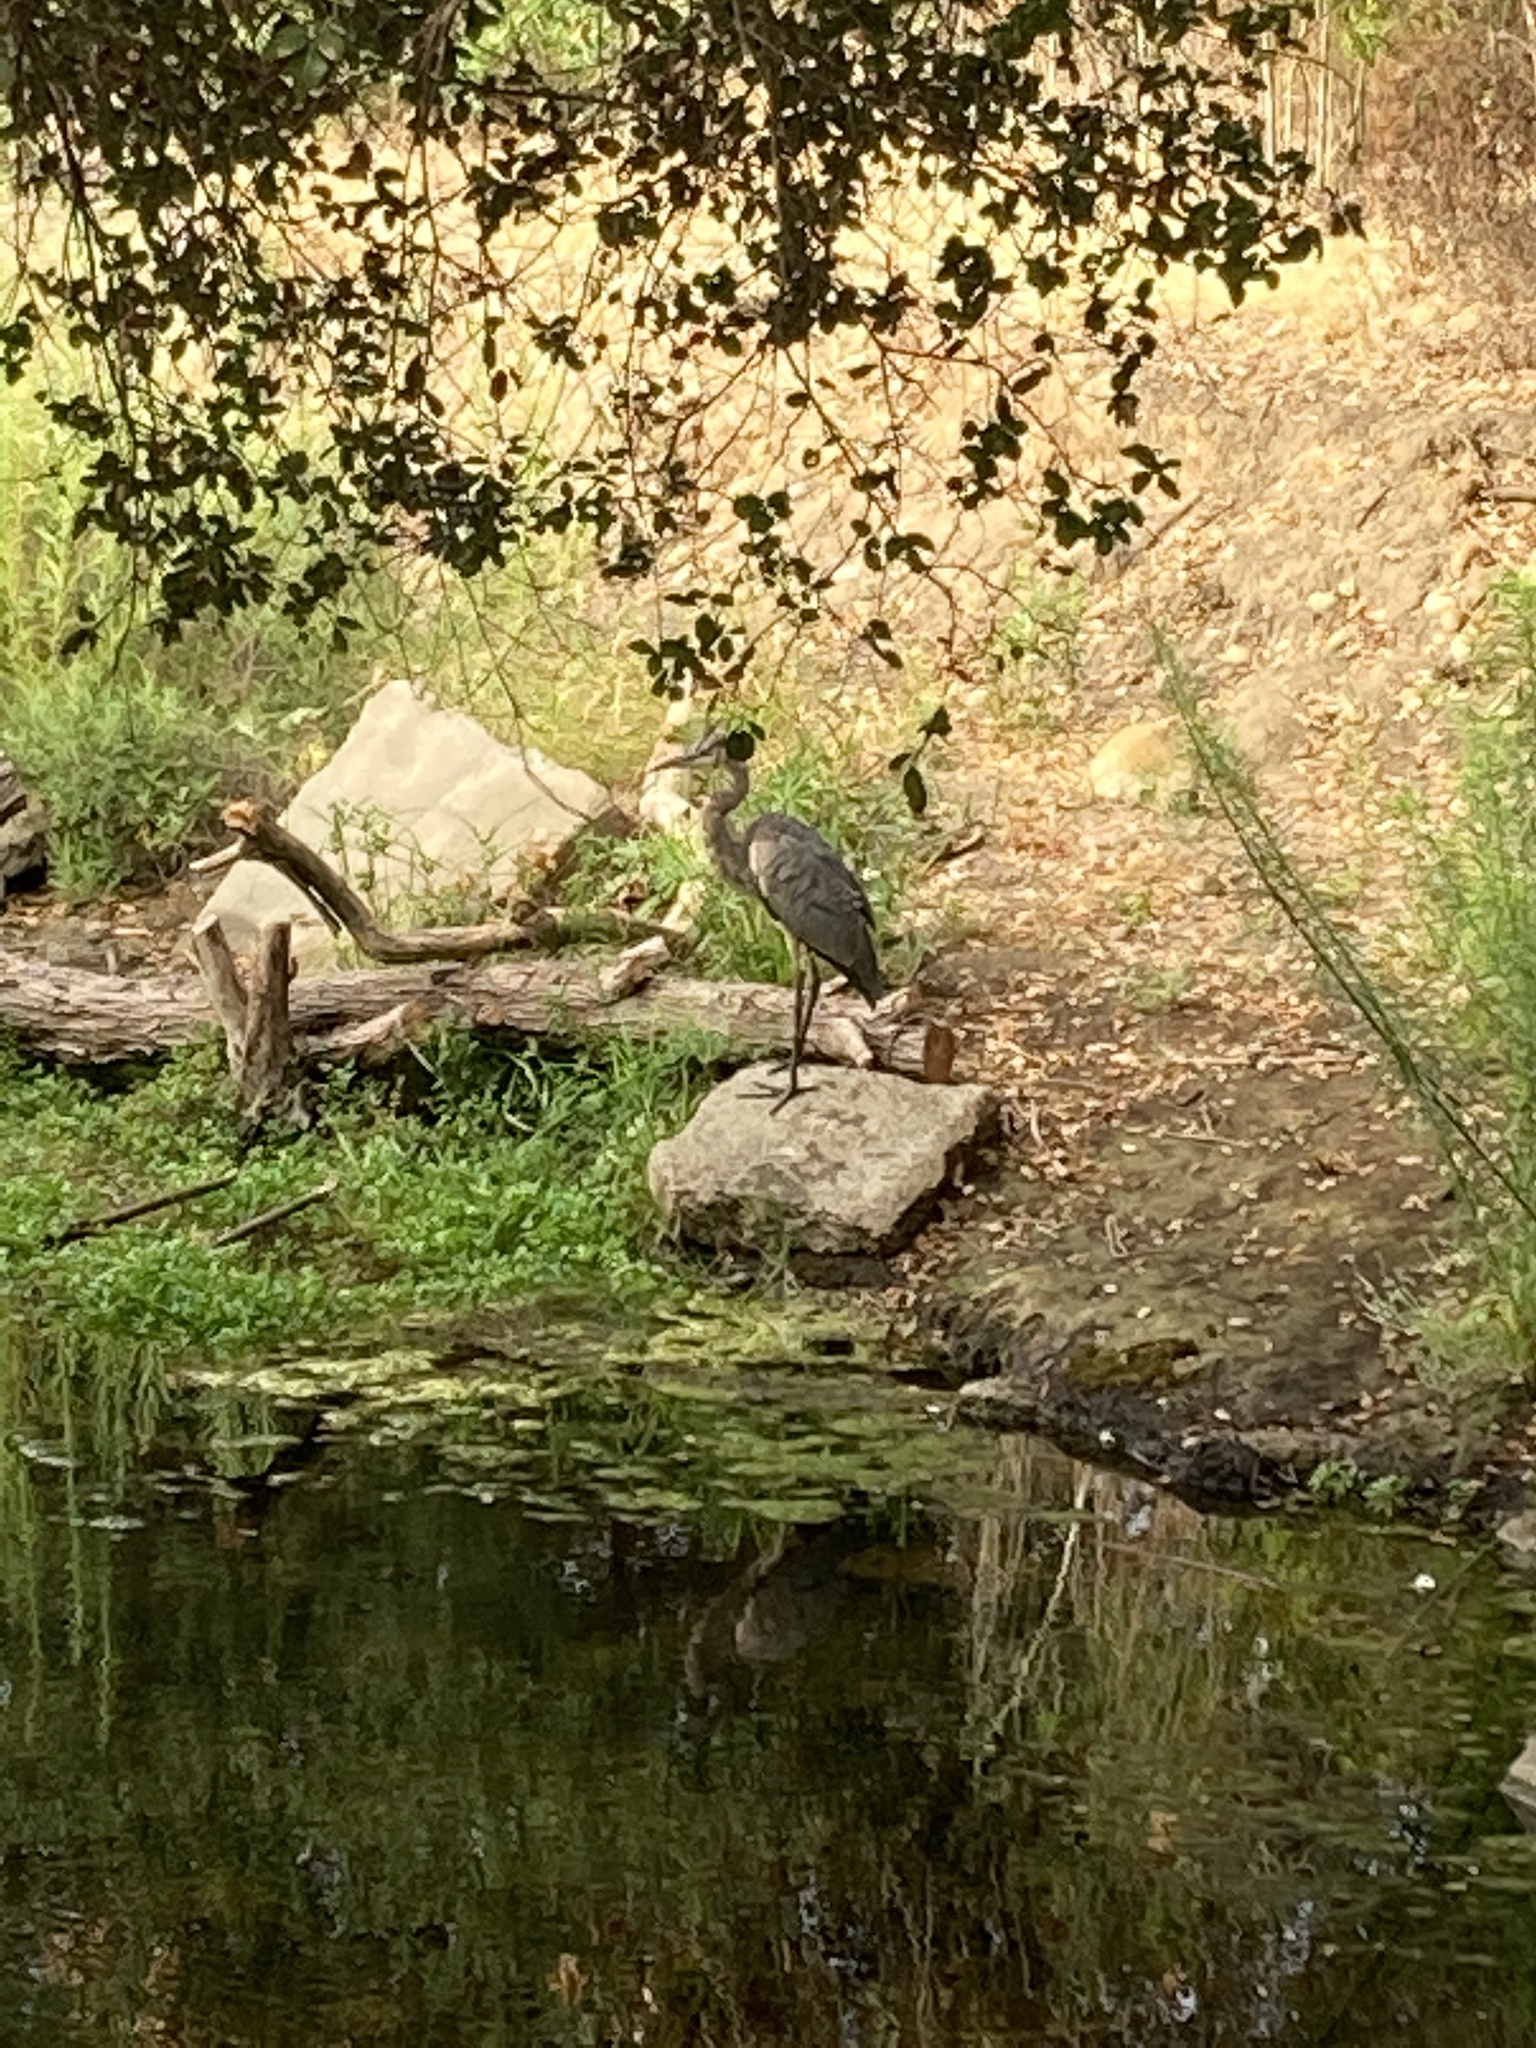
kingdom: Animalia
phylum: Chordata
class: Aves
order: Pelecaniformes
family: Ardeidae
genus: Ardea
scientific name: Ardea herodias
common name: Great blue heron
